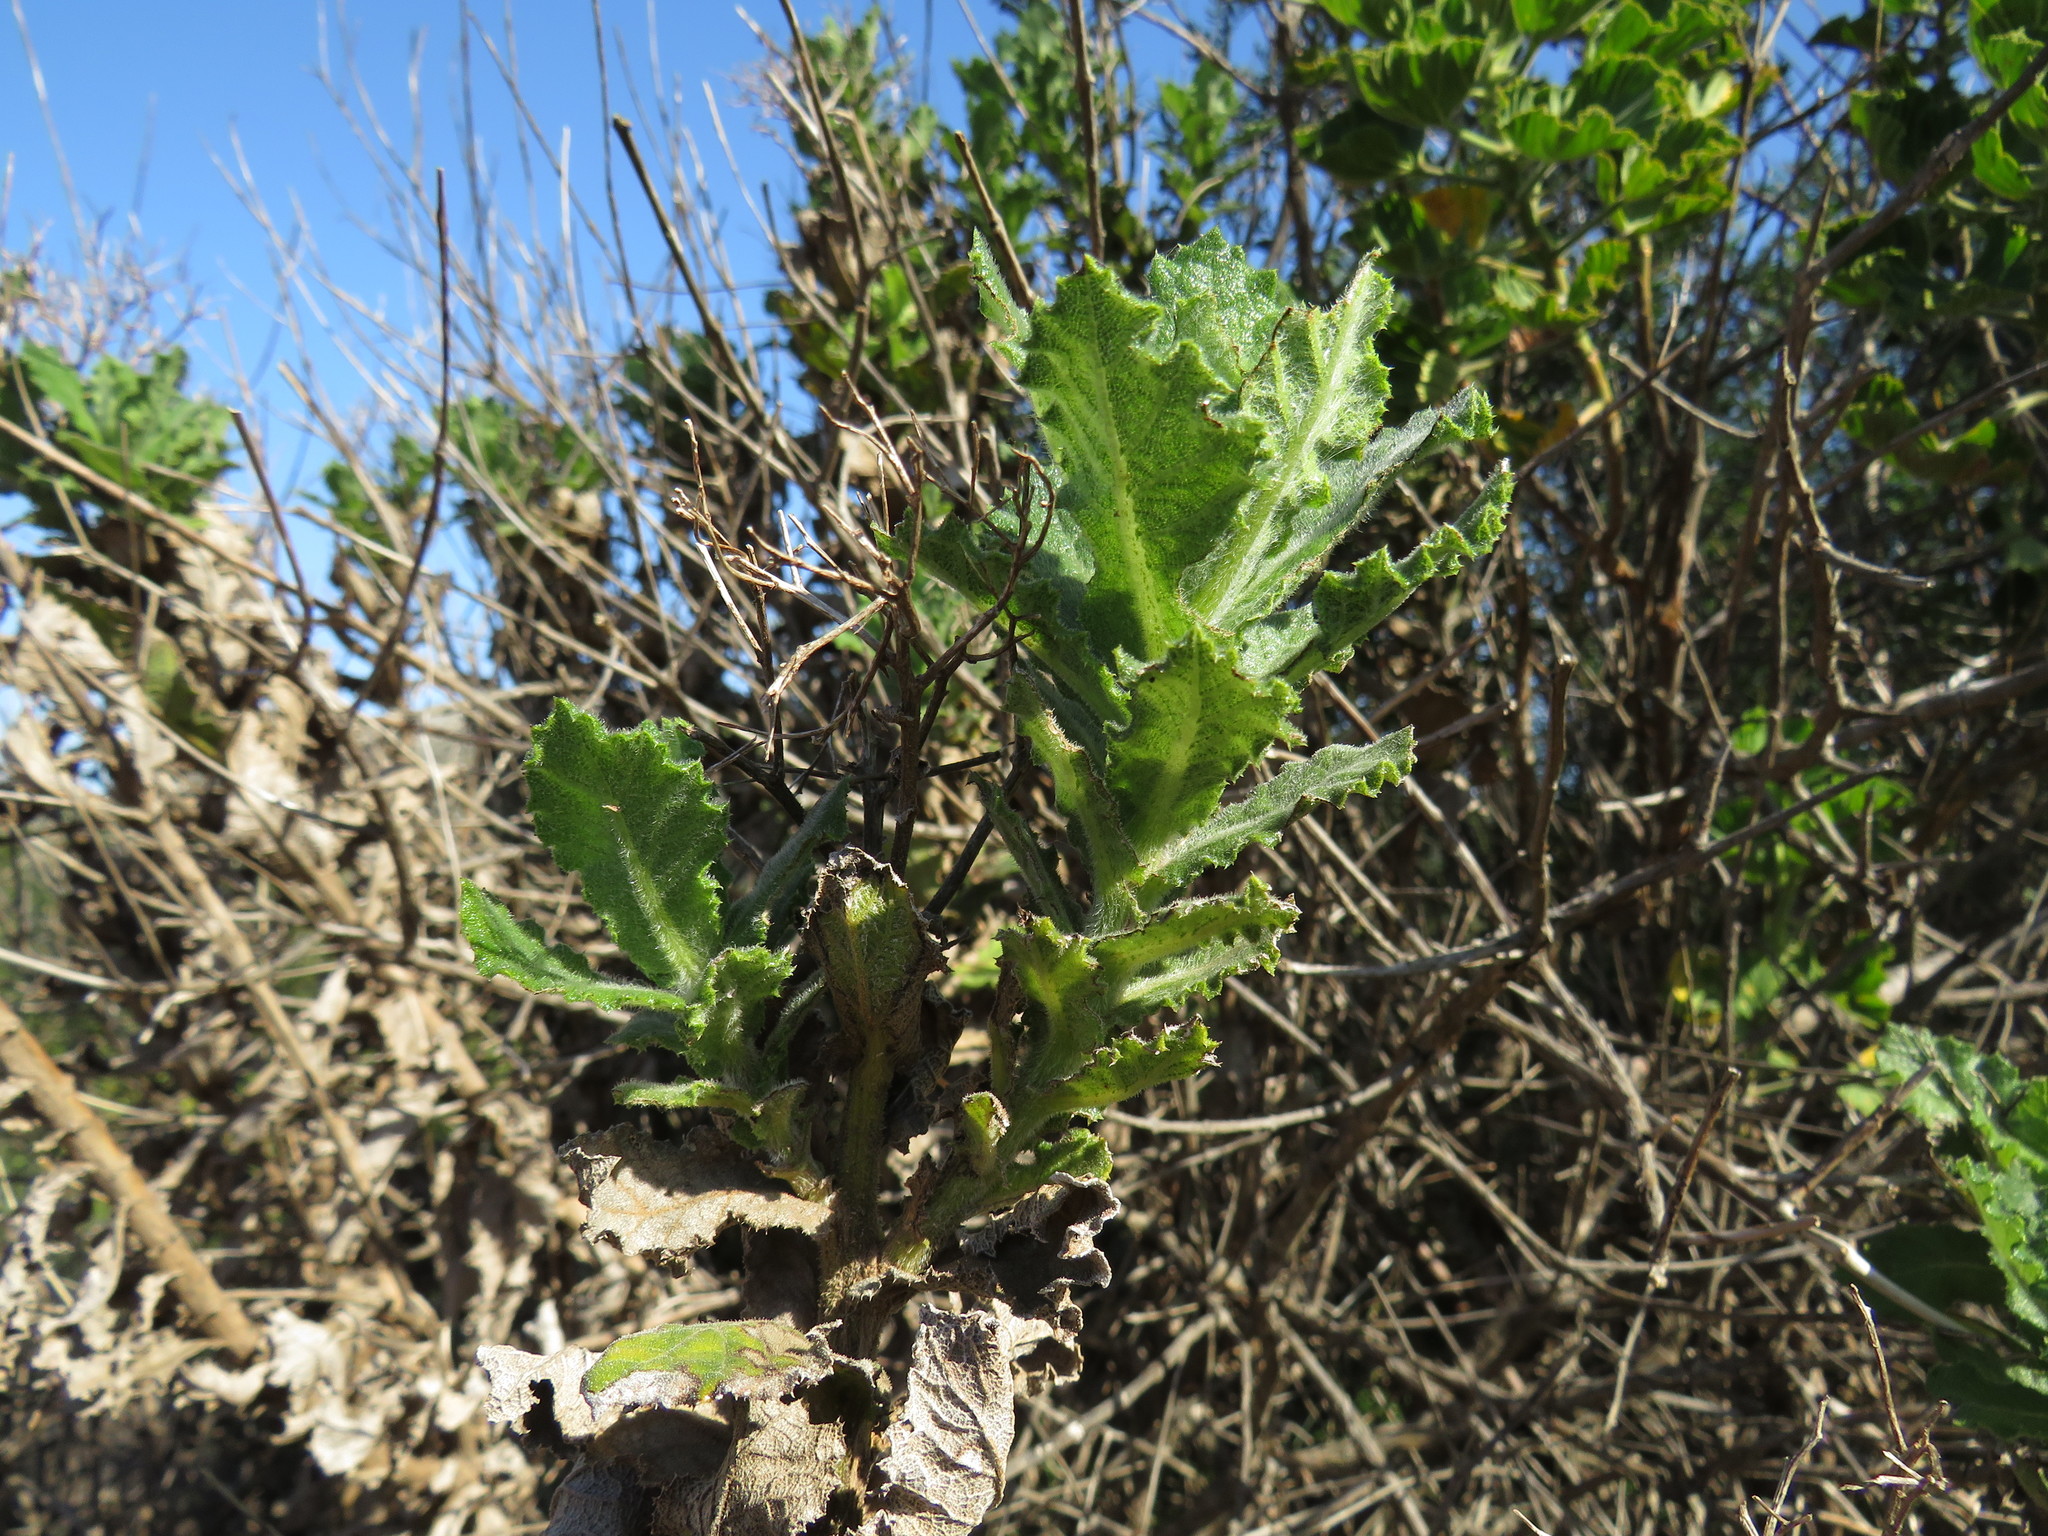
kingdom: Plantae
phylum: Tracheophyta
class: Magnoliopsida
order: Asterales
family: Asteraceae
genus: Senecio
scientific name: Senecio rigidus
